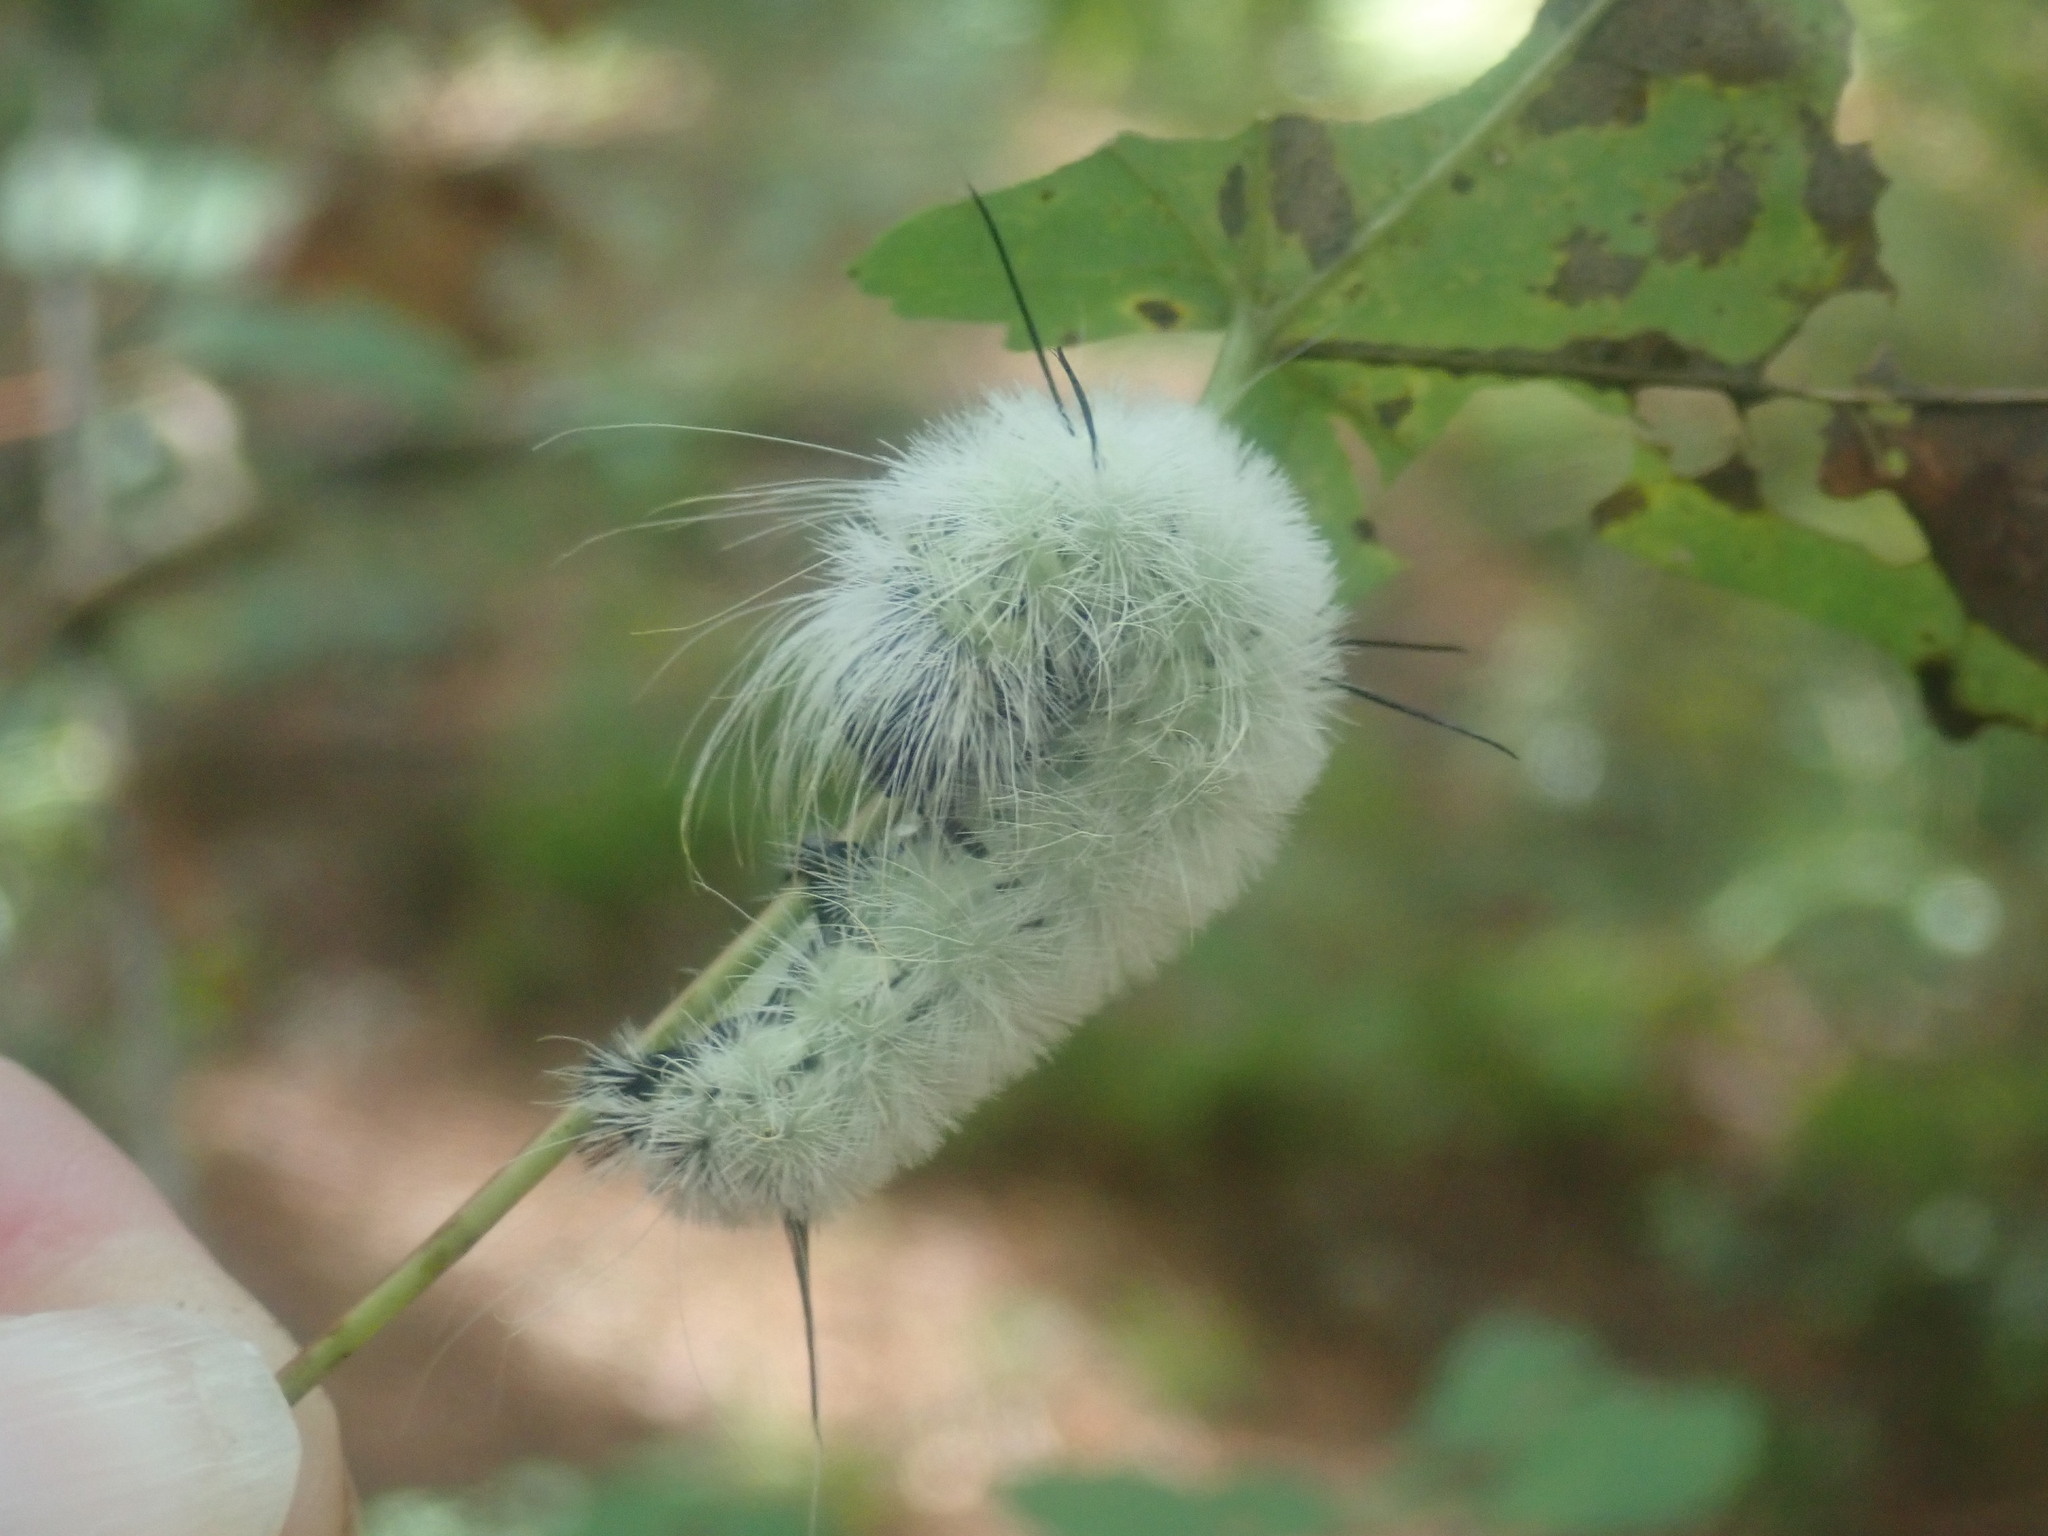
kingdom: Animalia
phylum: Arthropoda
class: Insecta
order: Lepidoptera
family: Noctuidae
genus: Acronicta
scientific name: Acronicta americana
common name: American dagger
